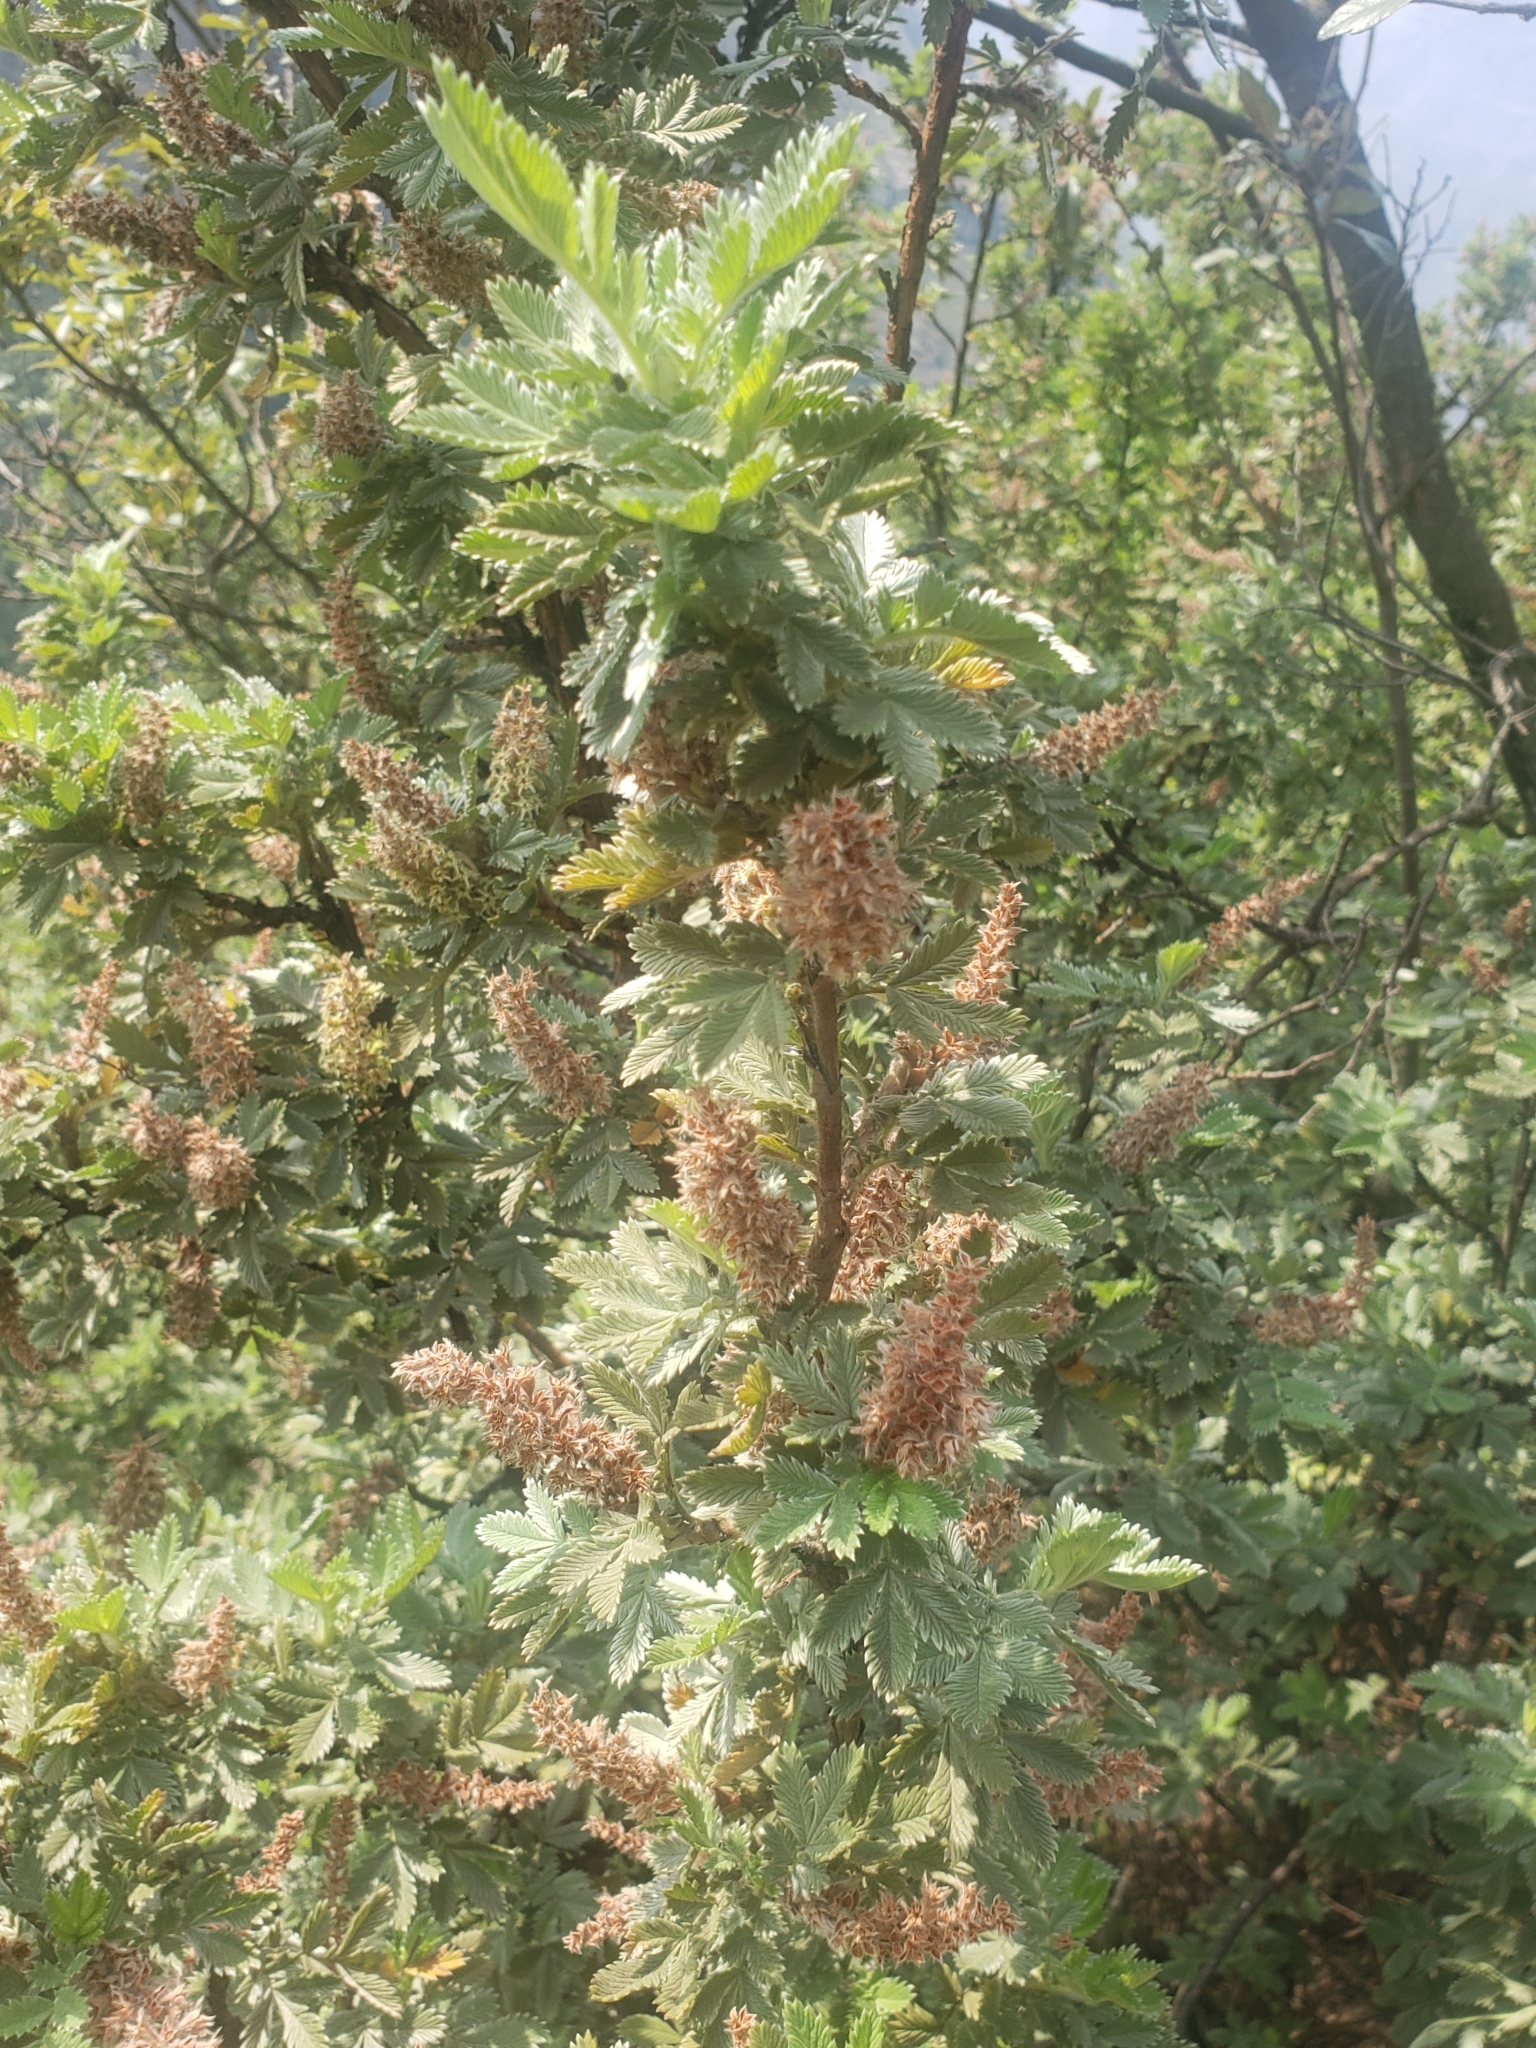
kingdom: Plantae
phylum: Tracheophyta
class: Magnoliopsida
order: Rosales
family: Rosaceae
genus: Leucosidea
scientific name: Leucosidea sericea
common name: Oldwood
